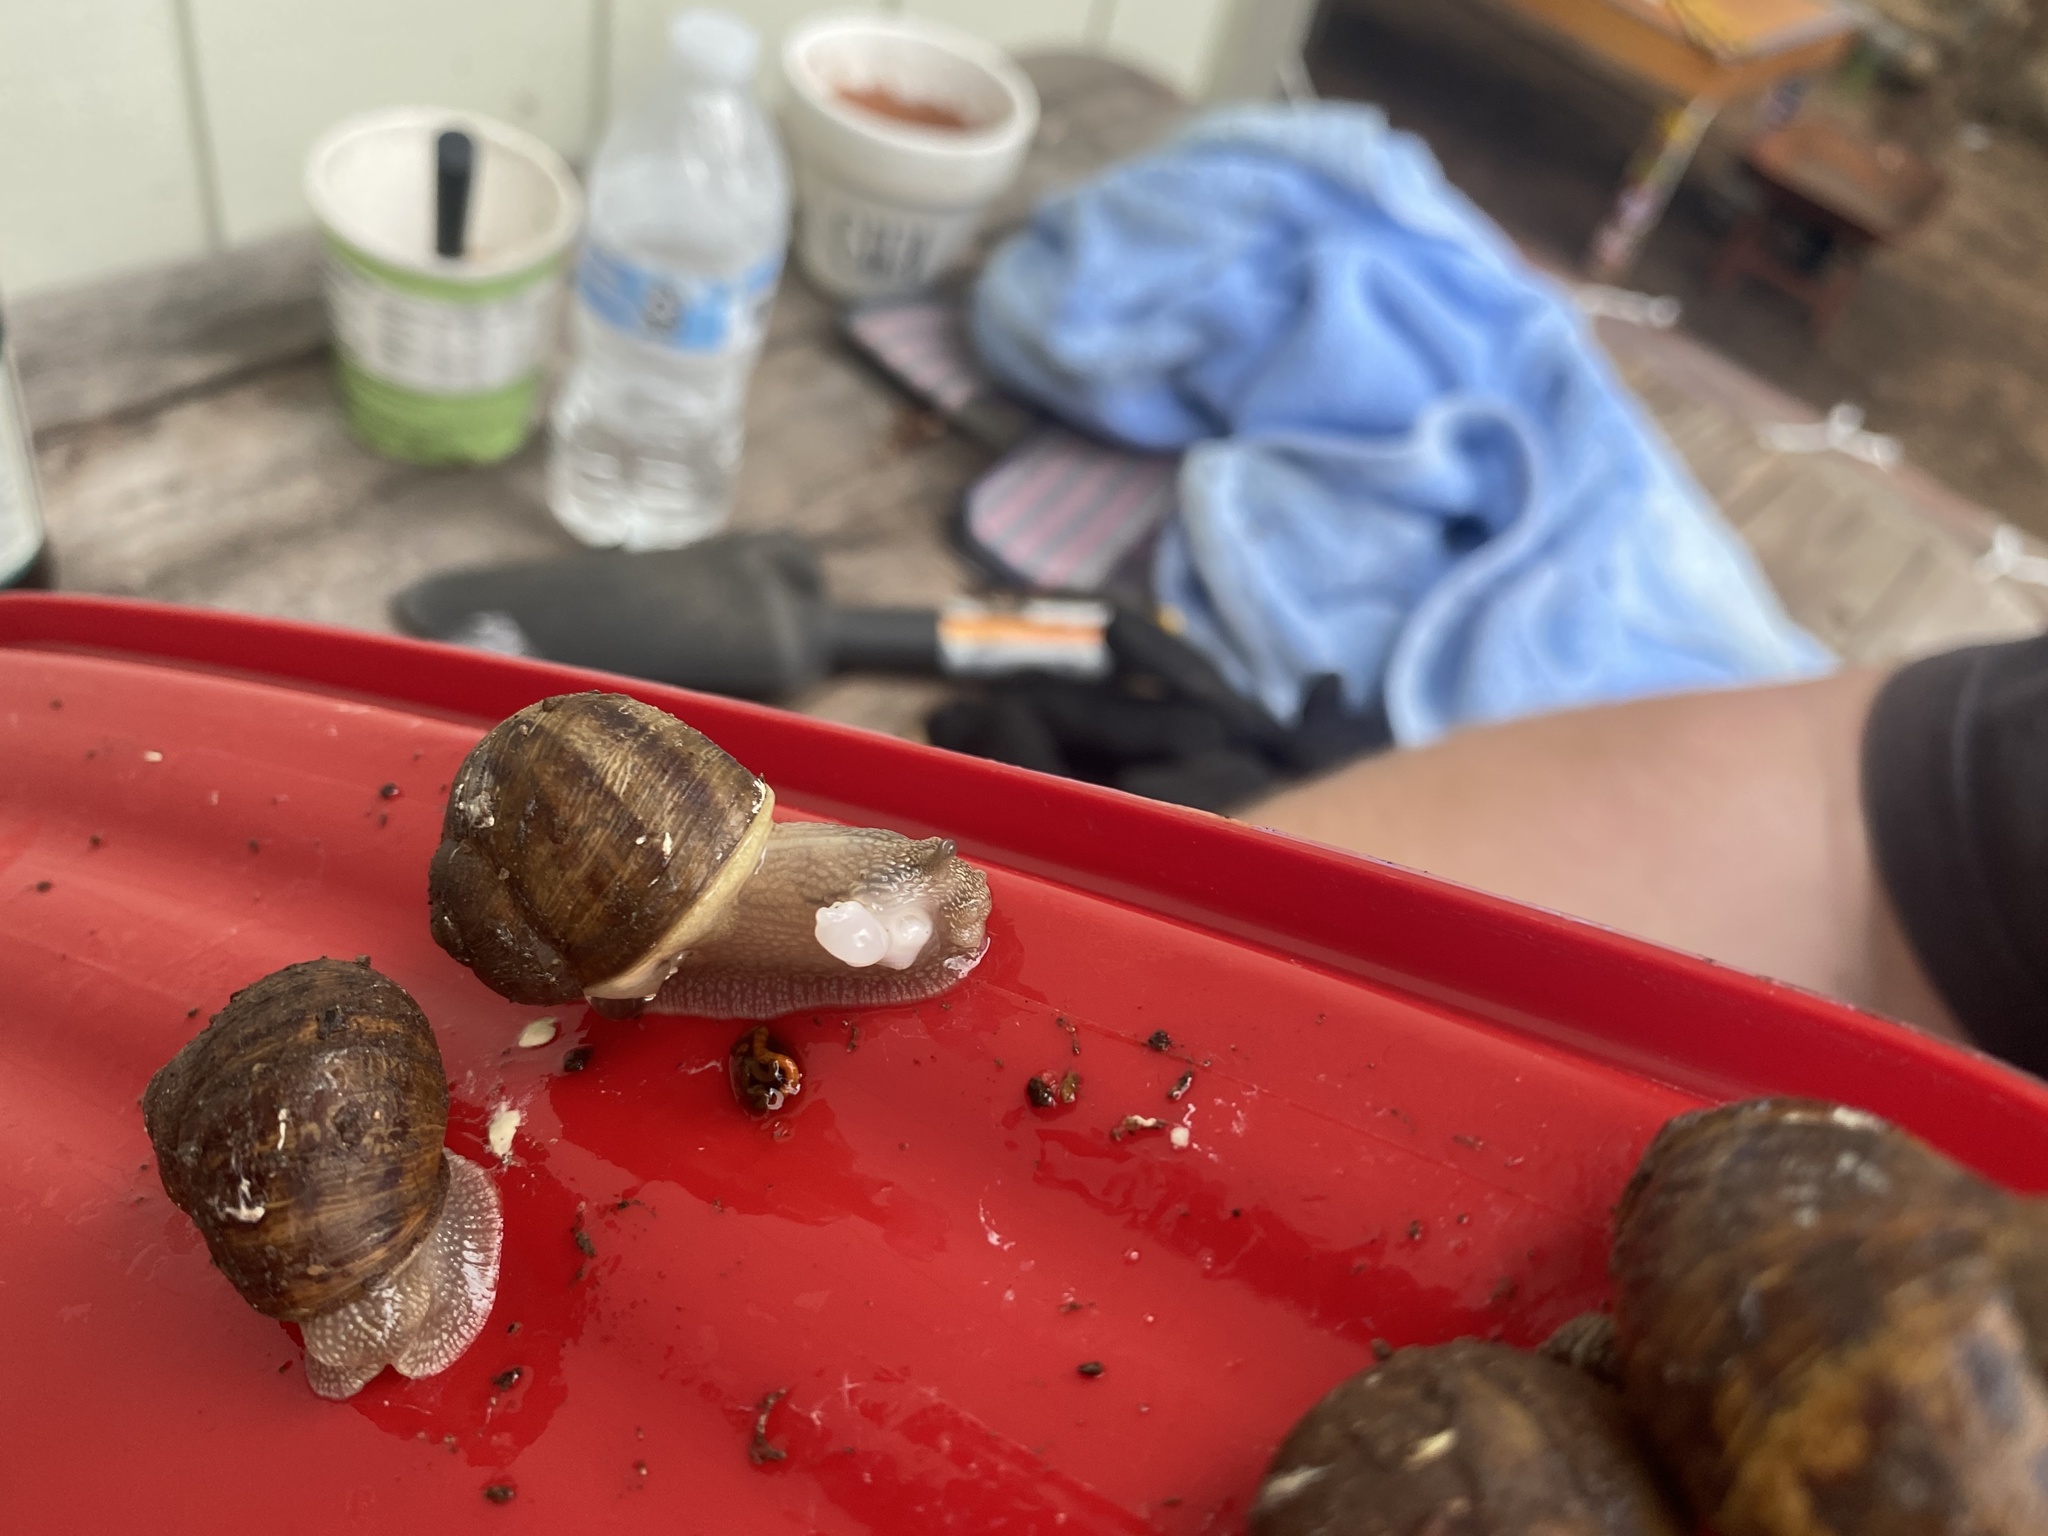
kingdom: Animalia
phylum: Mollusca
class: Gastropoda
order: Stylommatophora
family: Helicidae
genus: Cornu
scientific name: Cornu aspersum
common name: Brown garden snail
